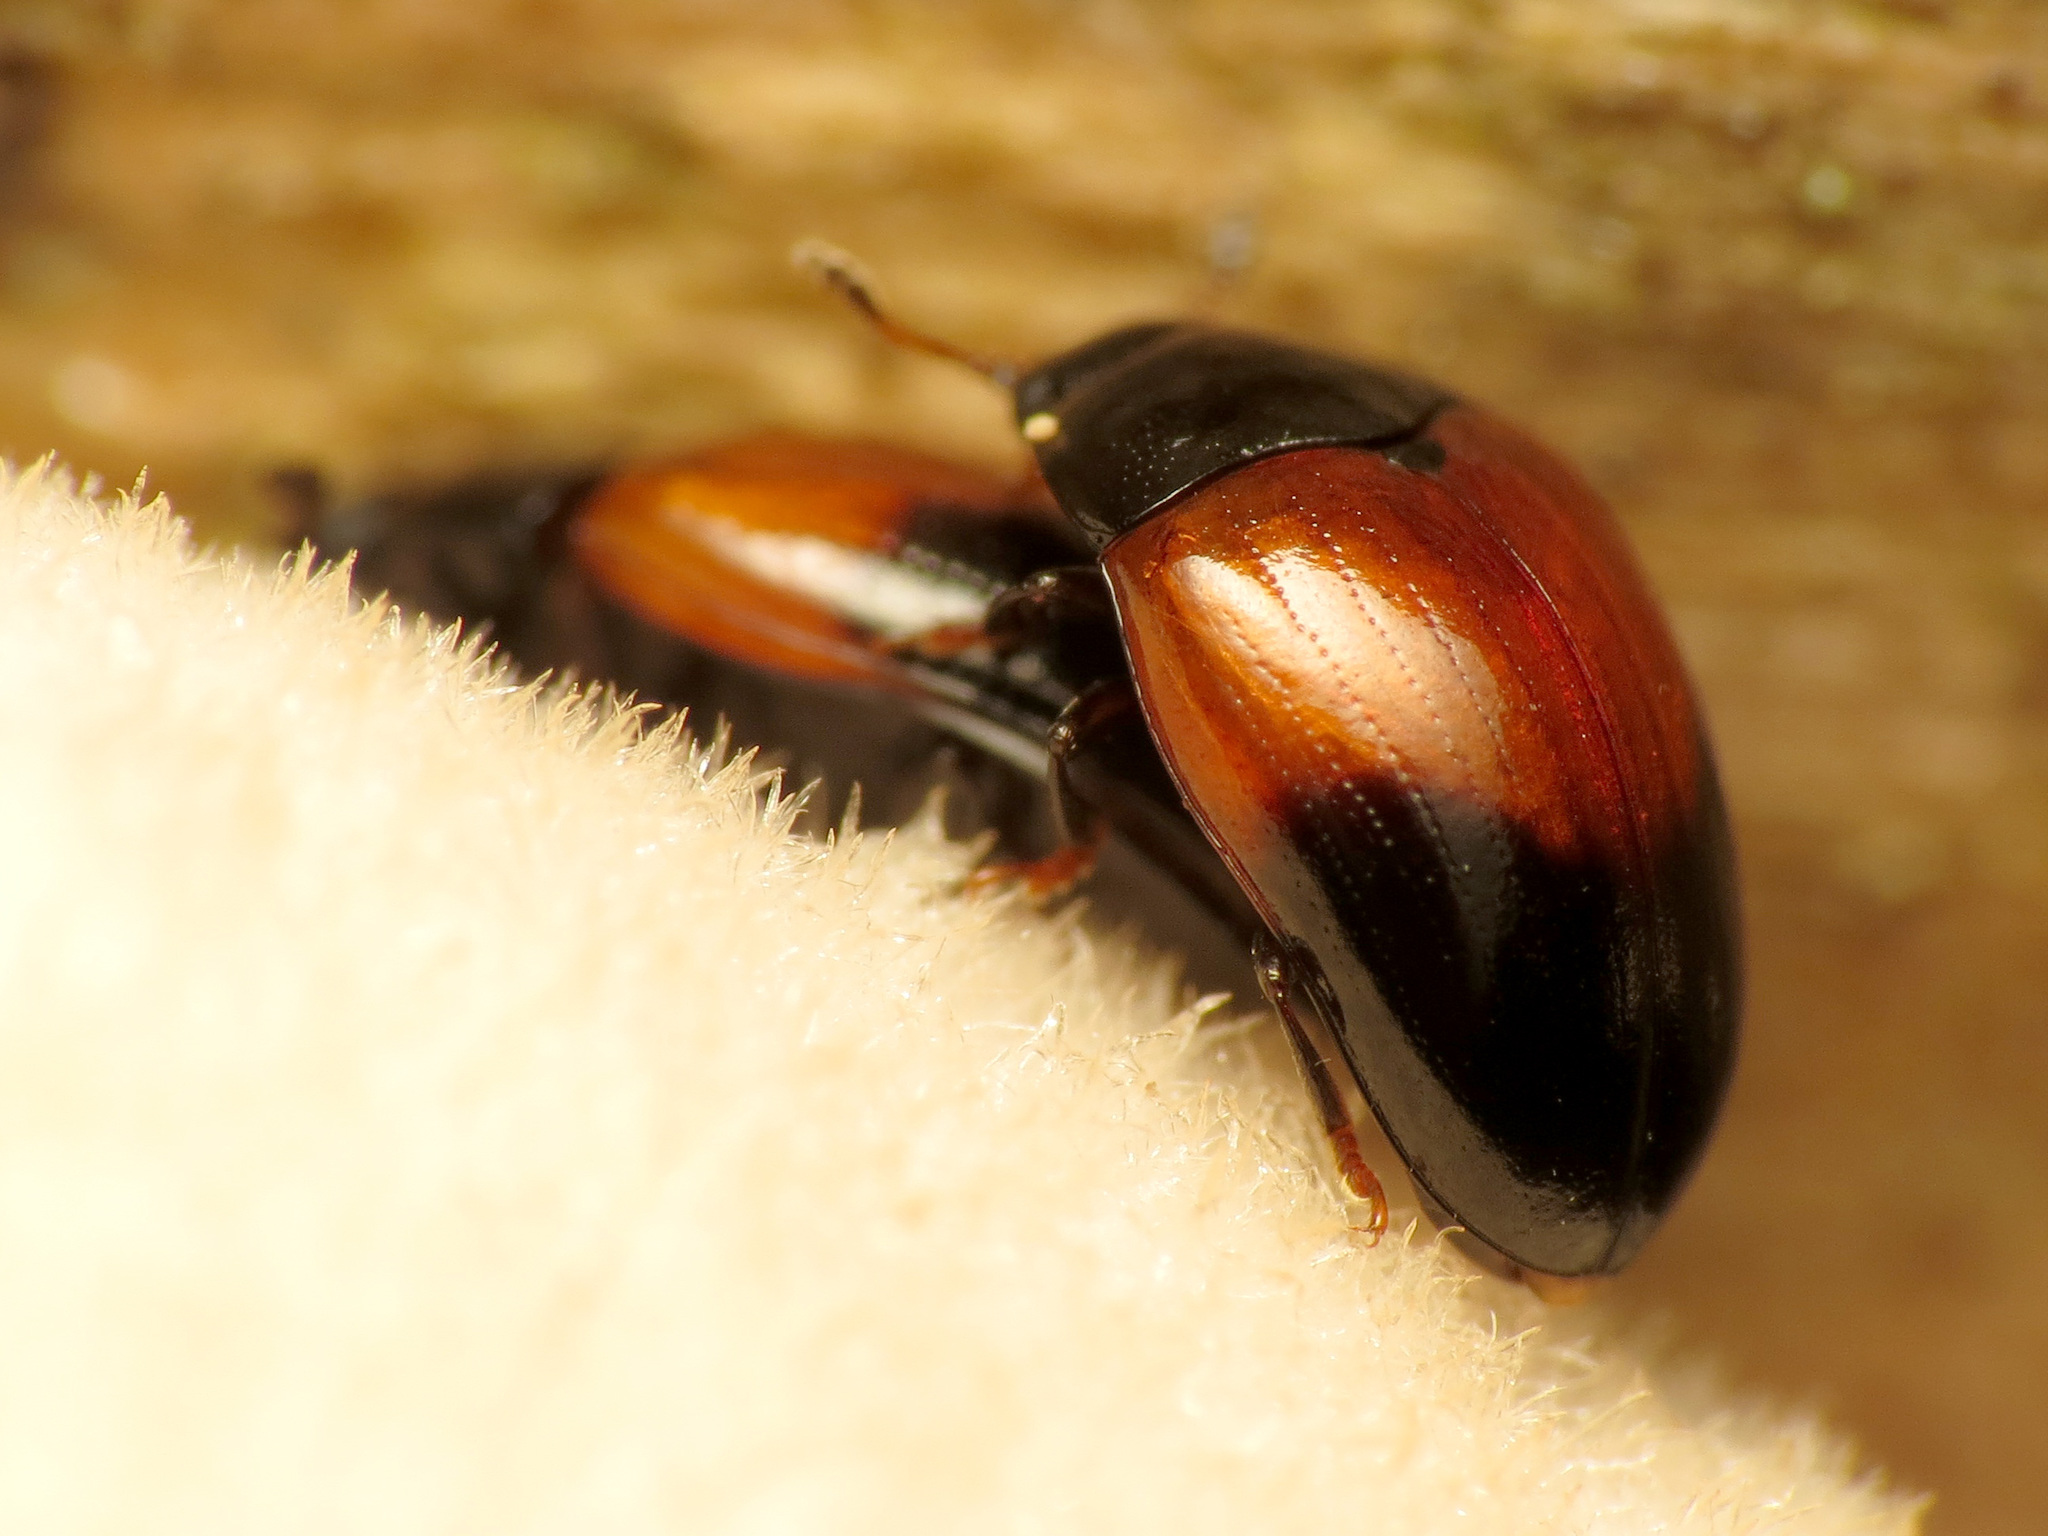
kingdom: Animalia
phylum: Arthropoda
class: Insecta
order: Coleoptera
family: Erotylidae
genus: Tritoma
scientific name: Tritoma pulchra
